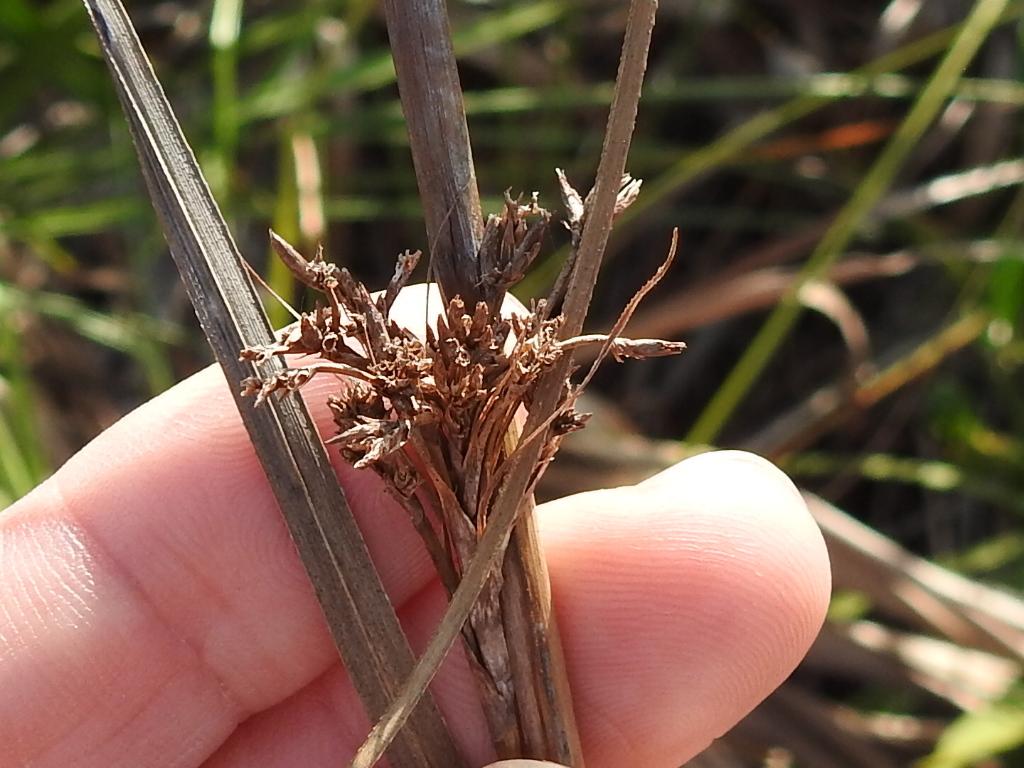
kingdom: Plantae
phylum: Tracheophyta
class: Liliopsida
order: Poales
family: Cyperaceae
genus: Cladium
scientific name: Cladium mariscus
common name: Great fen-sedge
